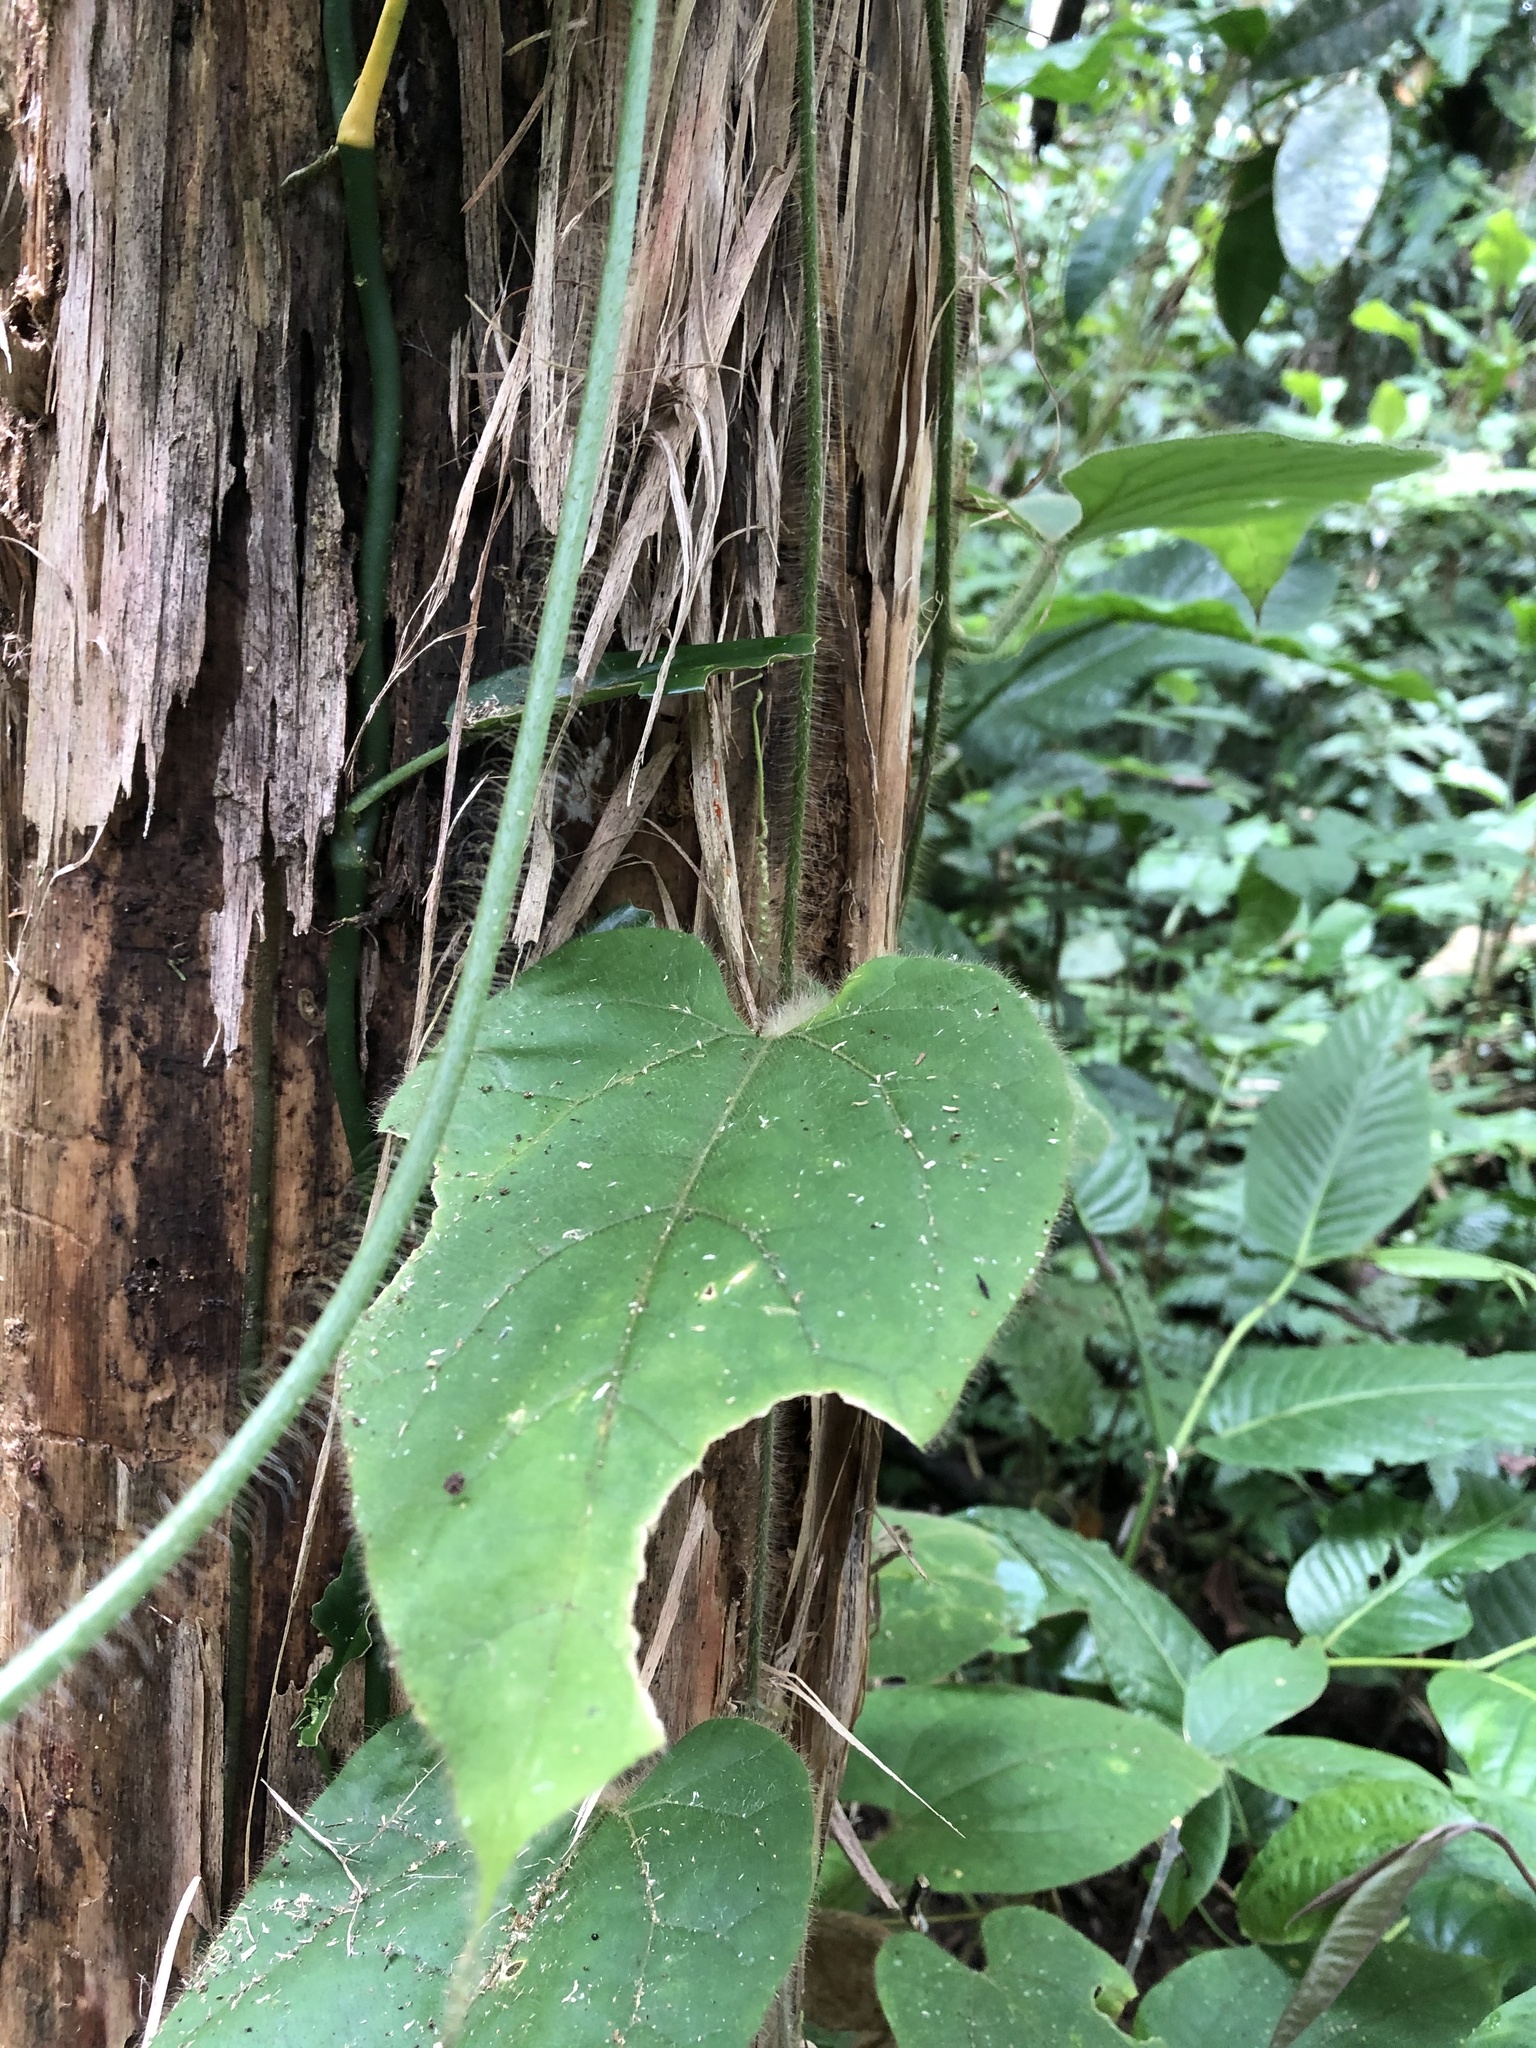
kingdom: Plantae
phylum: Tracheophyta
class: Magnoliopsida
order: Cucurbitales
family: Cucurbitaceae
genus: Gurania
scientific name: Gurania eriantha
